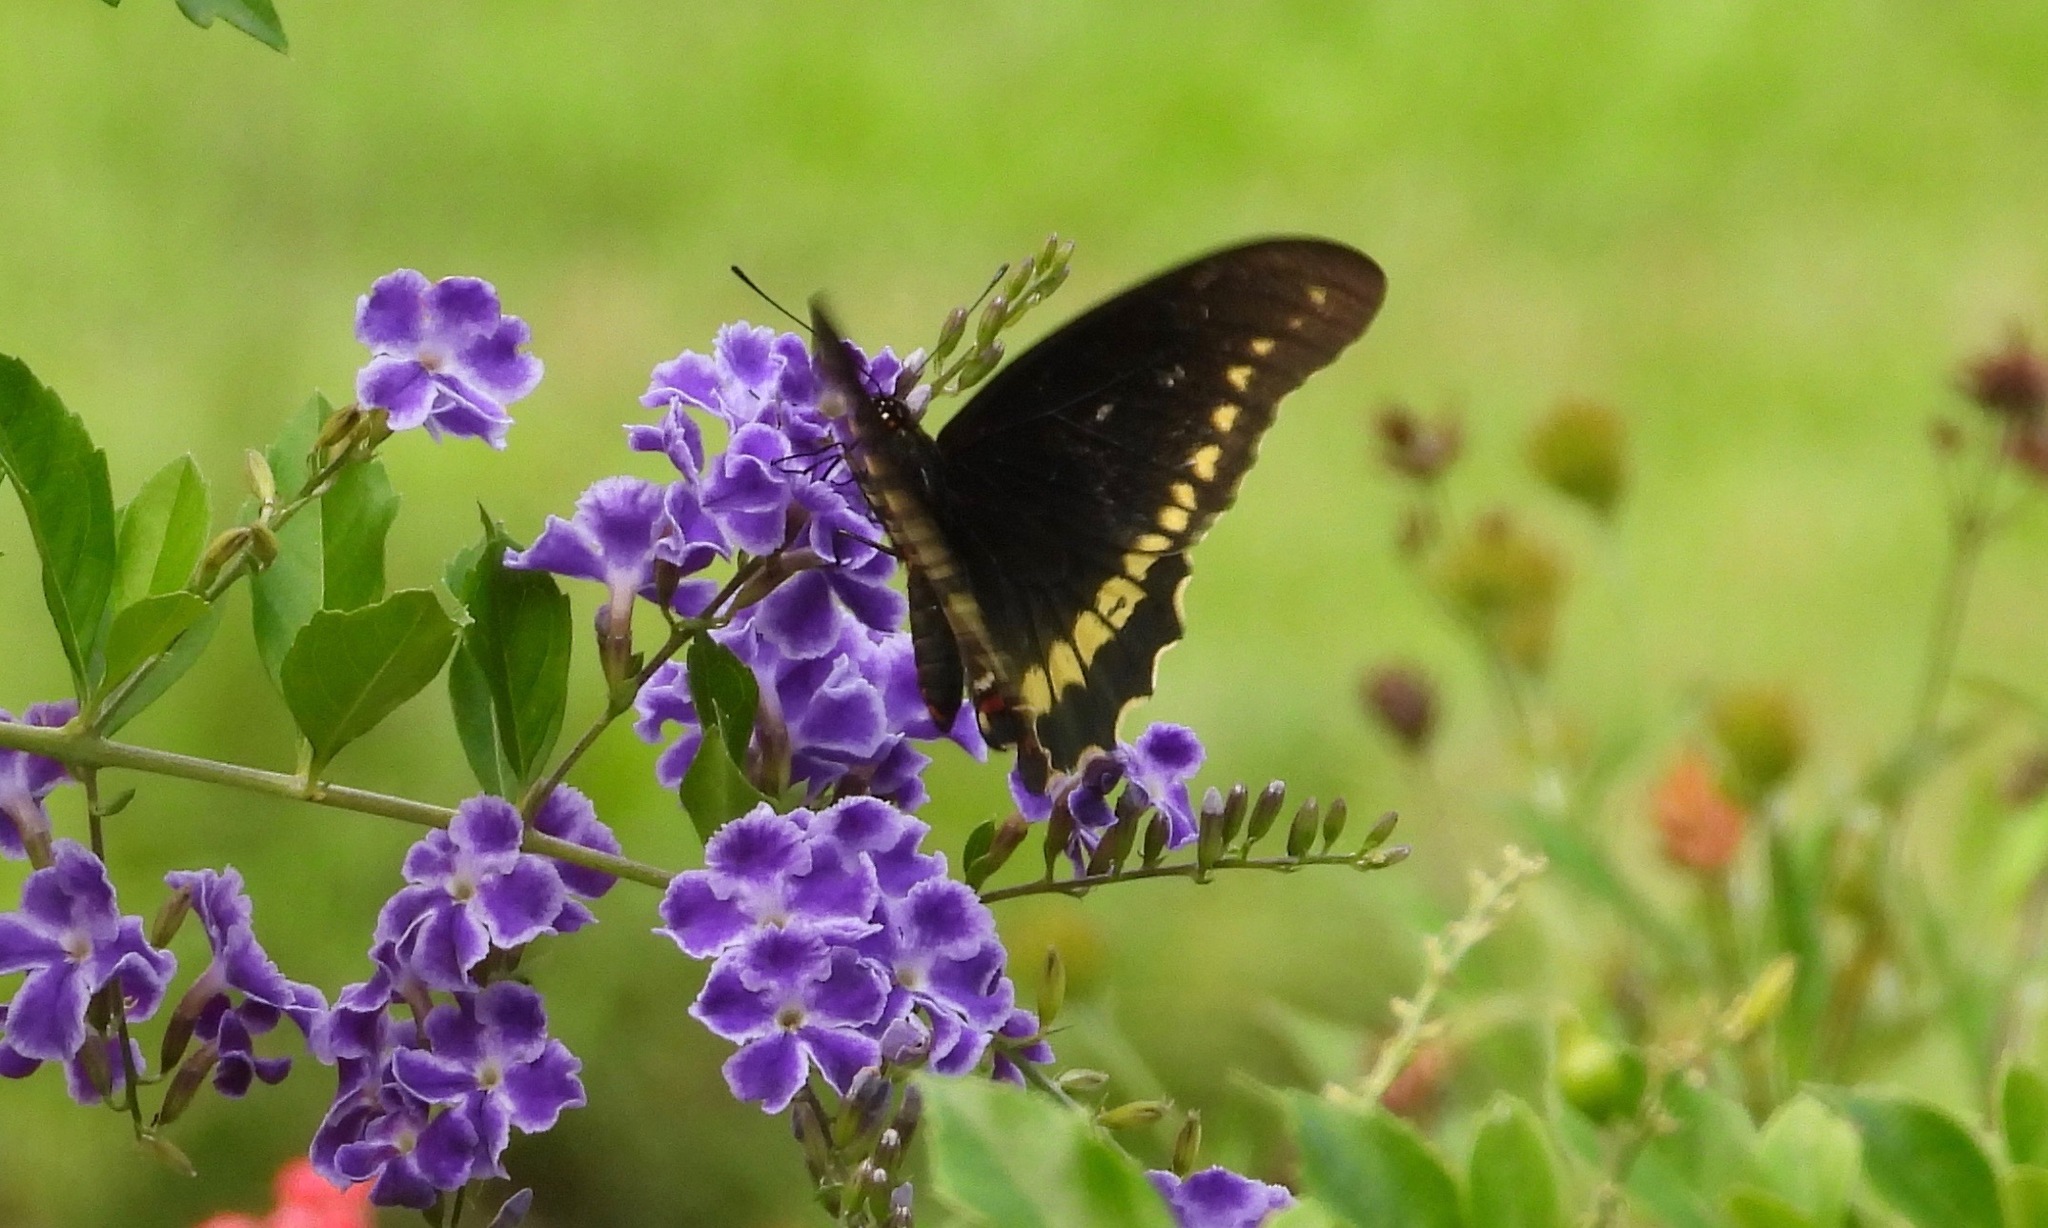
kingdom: Animalia
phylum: Arthropoda
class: Insecta
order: Lepidoptera
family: Papilionidae
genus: Battus
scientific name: Battus polydamas
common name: Polydamas swallowtail
